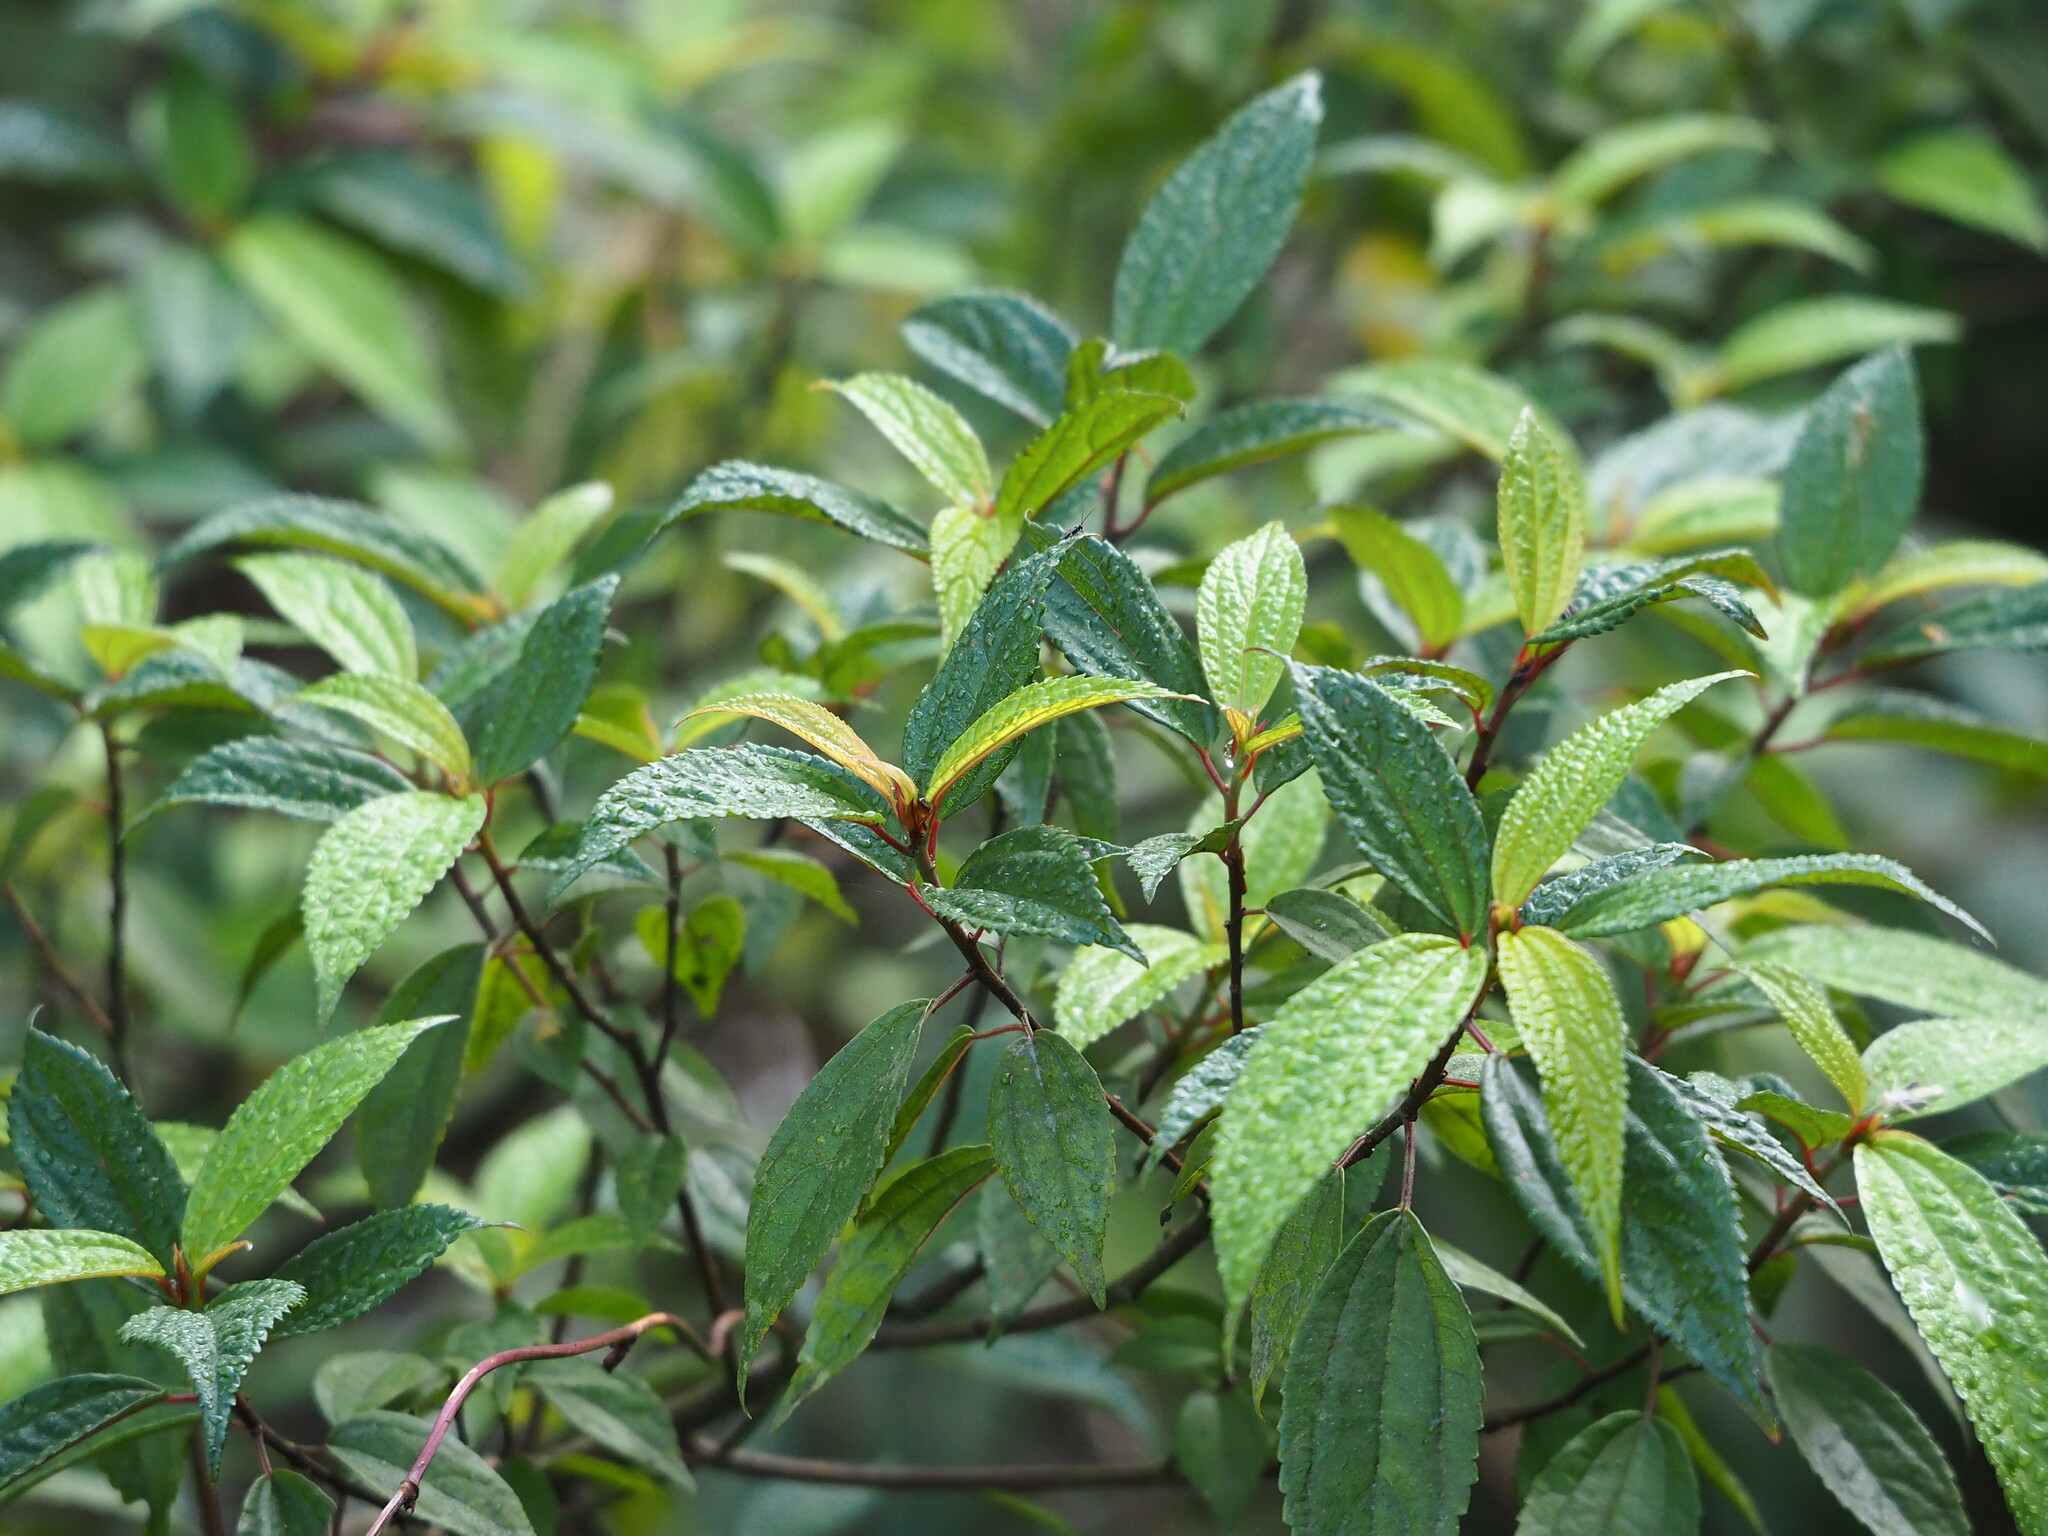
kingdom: Plantae
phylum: Tracheophyta
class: Magnoliopsida
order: Rosales
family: Urticaceae
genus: Oreocnide
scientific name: Oreocnide pedunculata
